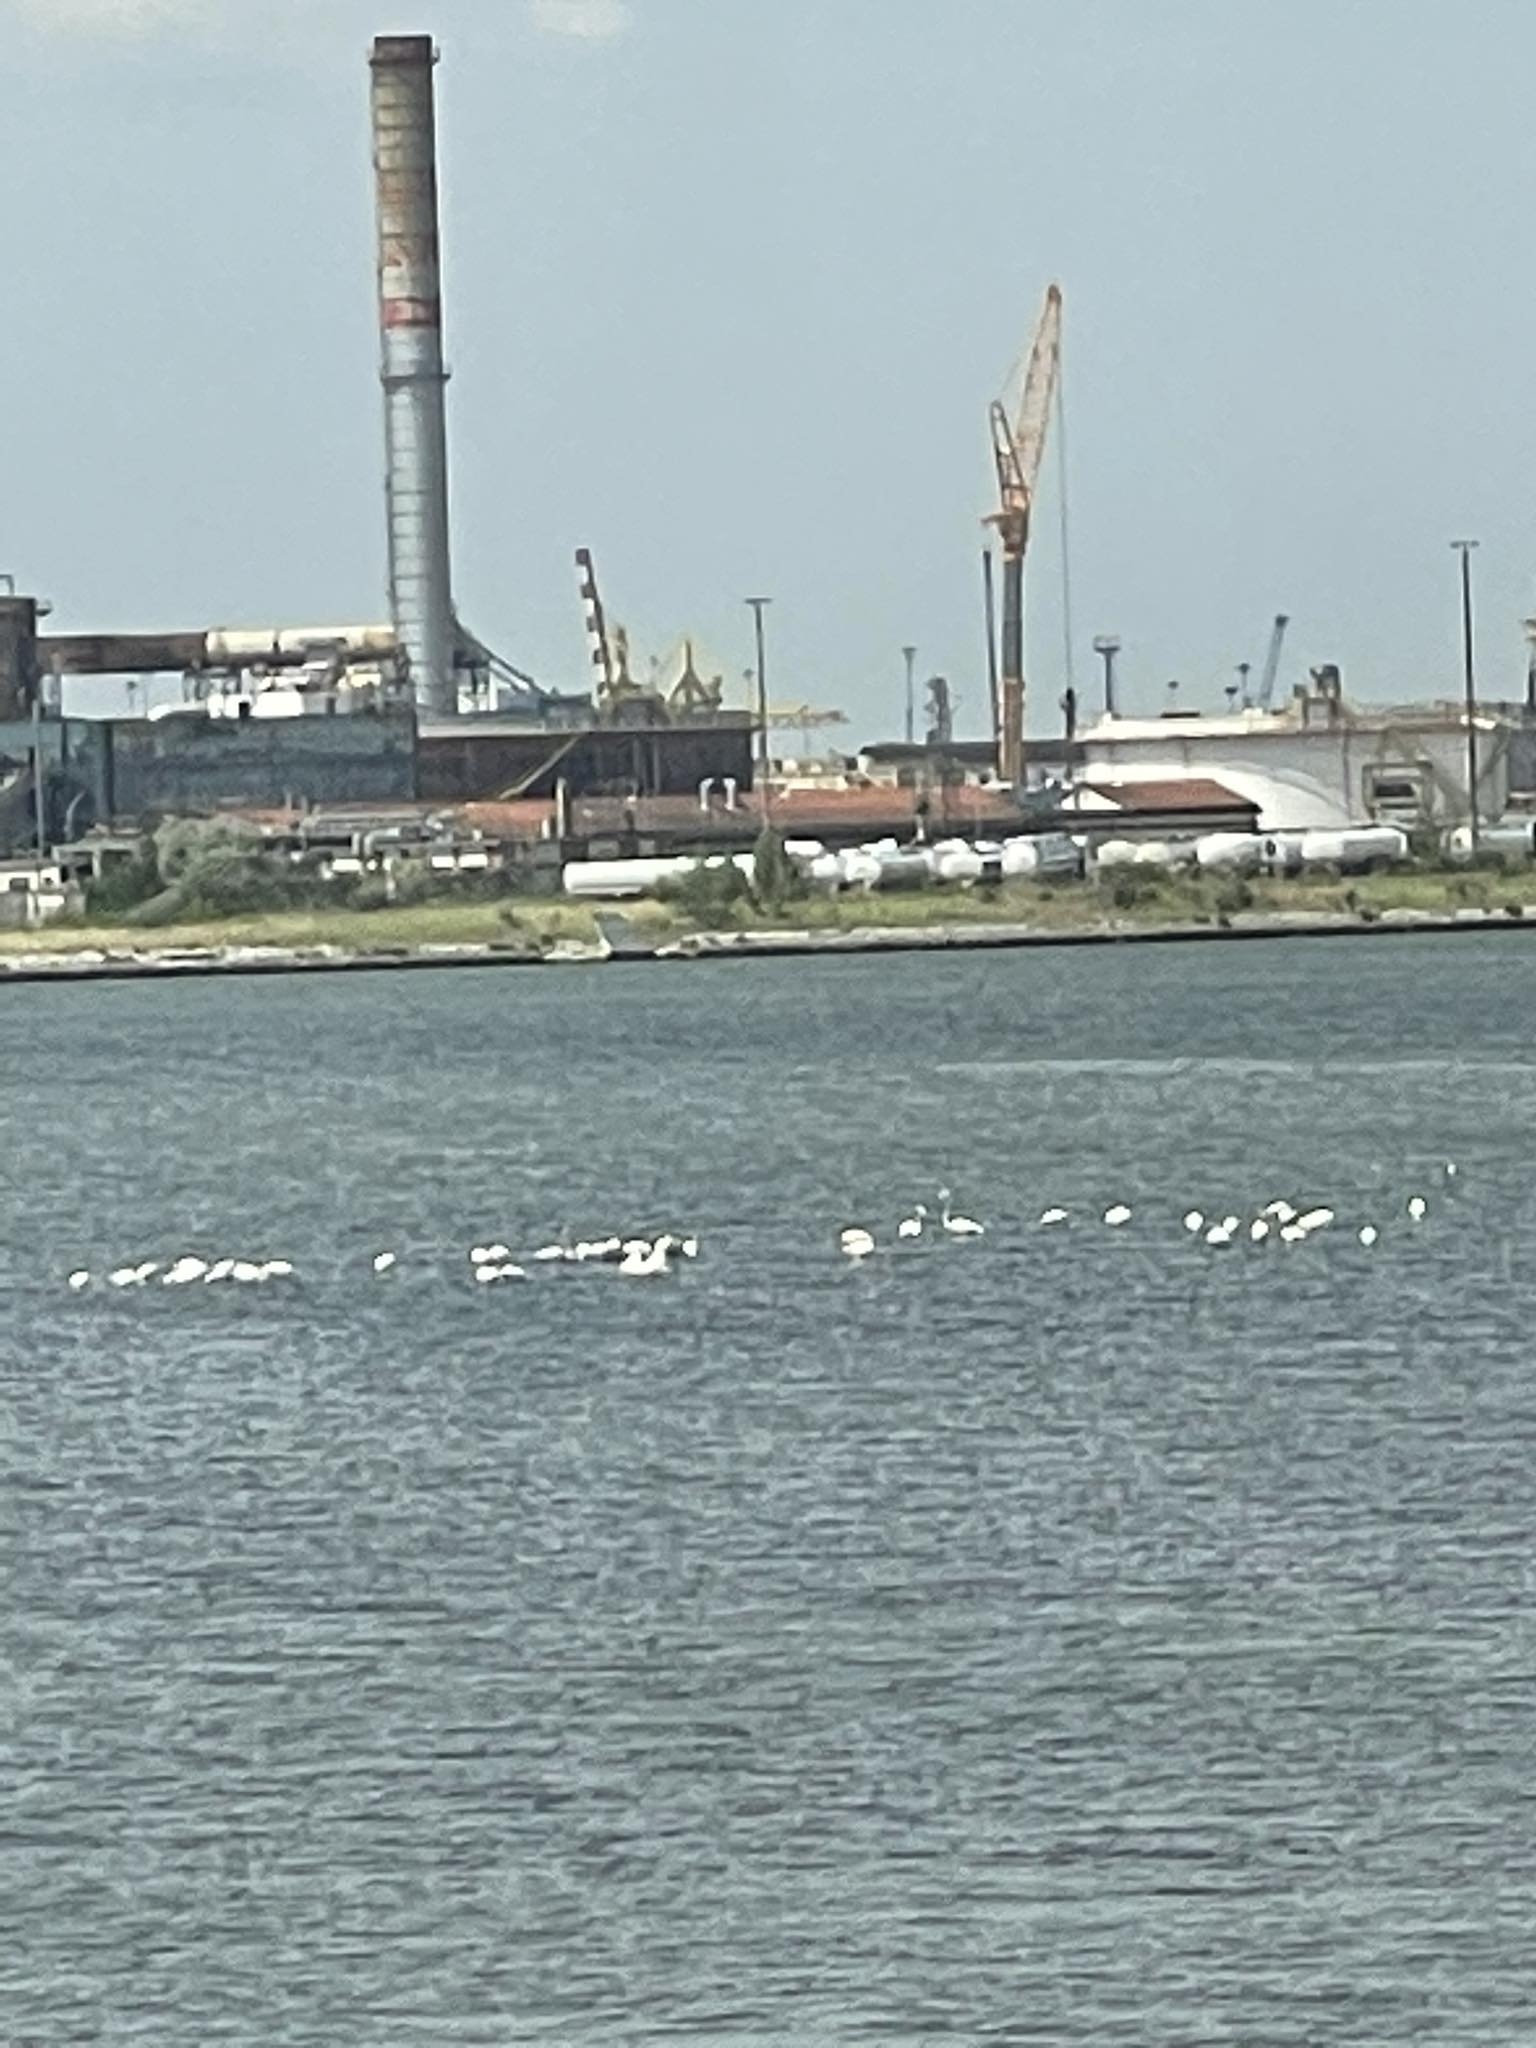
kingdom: Animalia
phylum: Chordata
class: Aves
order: Phoenicopteriformes
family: Phoenicopteridae
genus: Phoenicopterus
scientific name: Phoenicopterus roseus
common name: Greater flamingo
